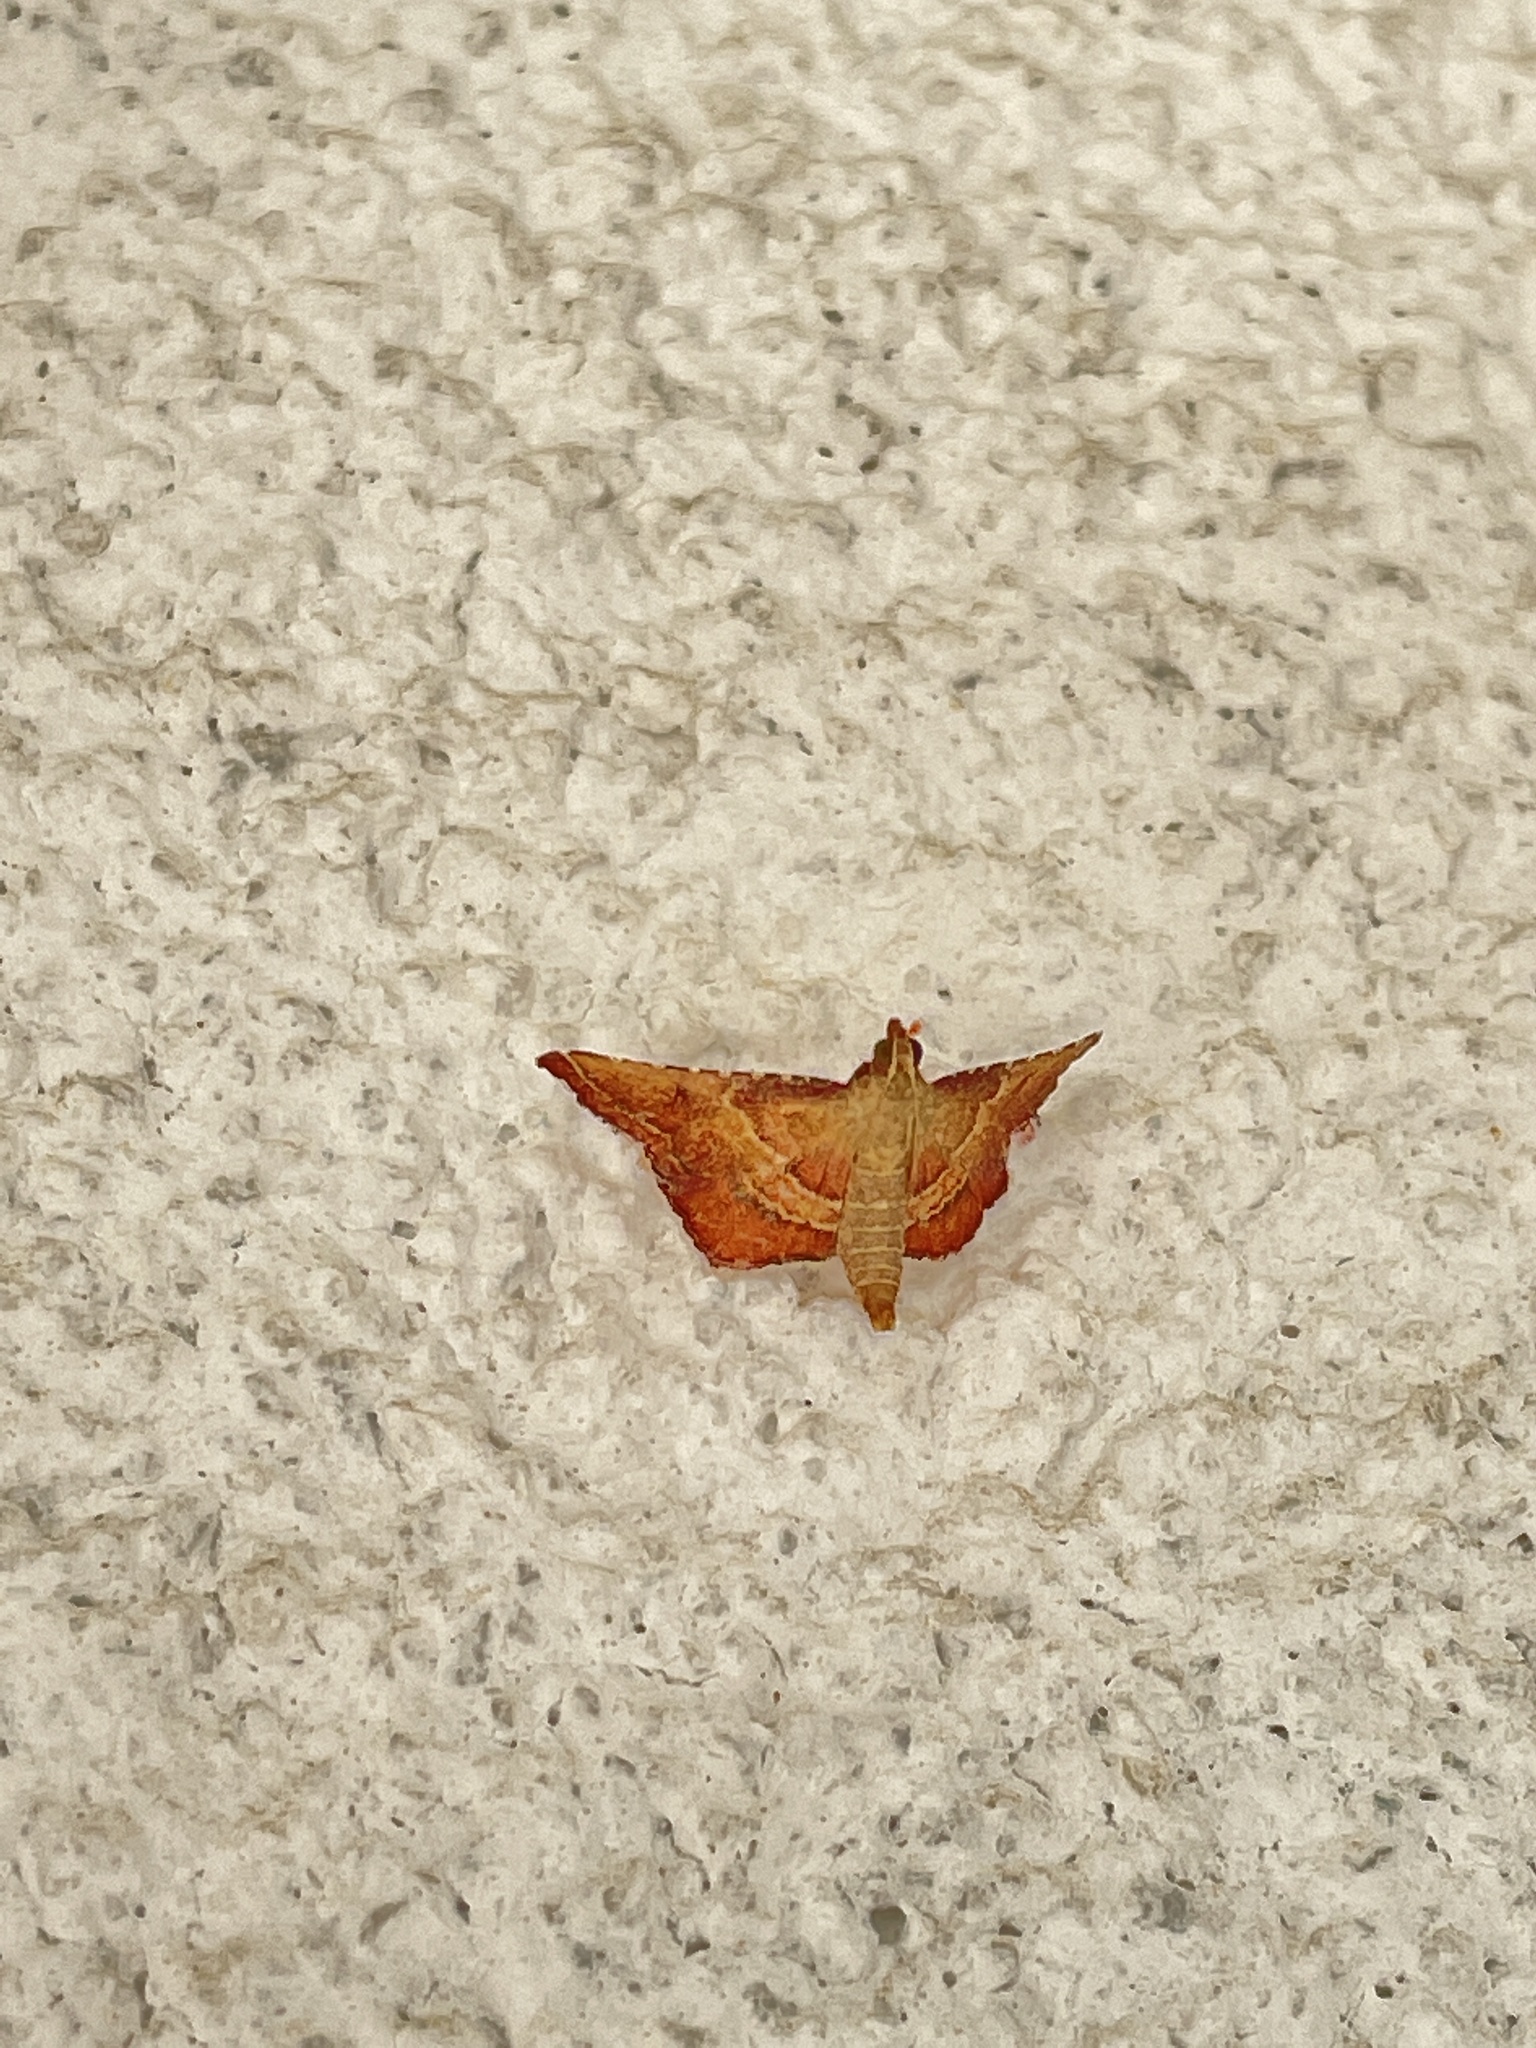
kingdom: Animalia
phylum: Arthropoda
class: Insecta
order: Lepidoptera
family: Pyralidae
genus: Endotricha
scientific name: Endotricha flammealis
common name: Rosy tabby
